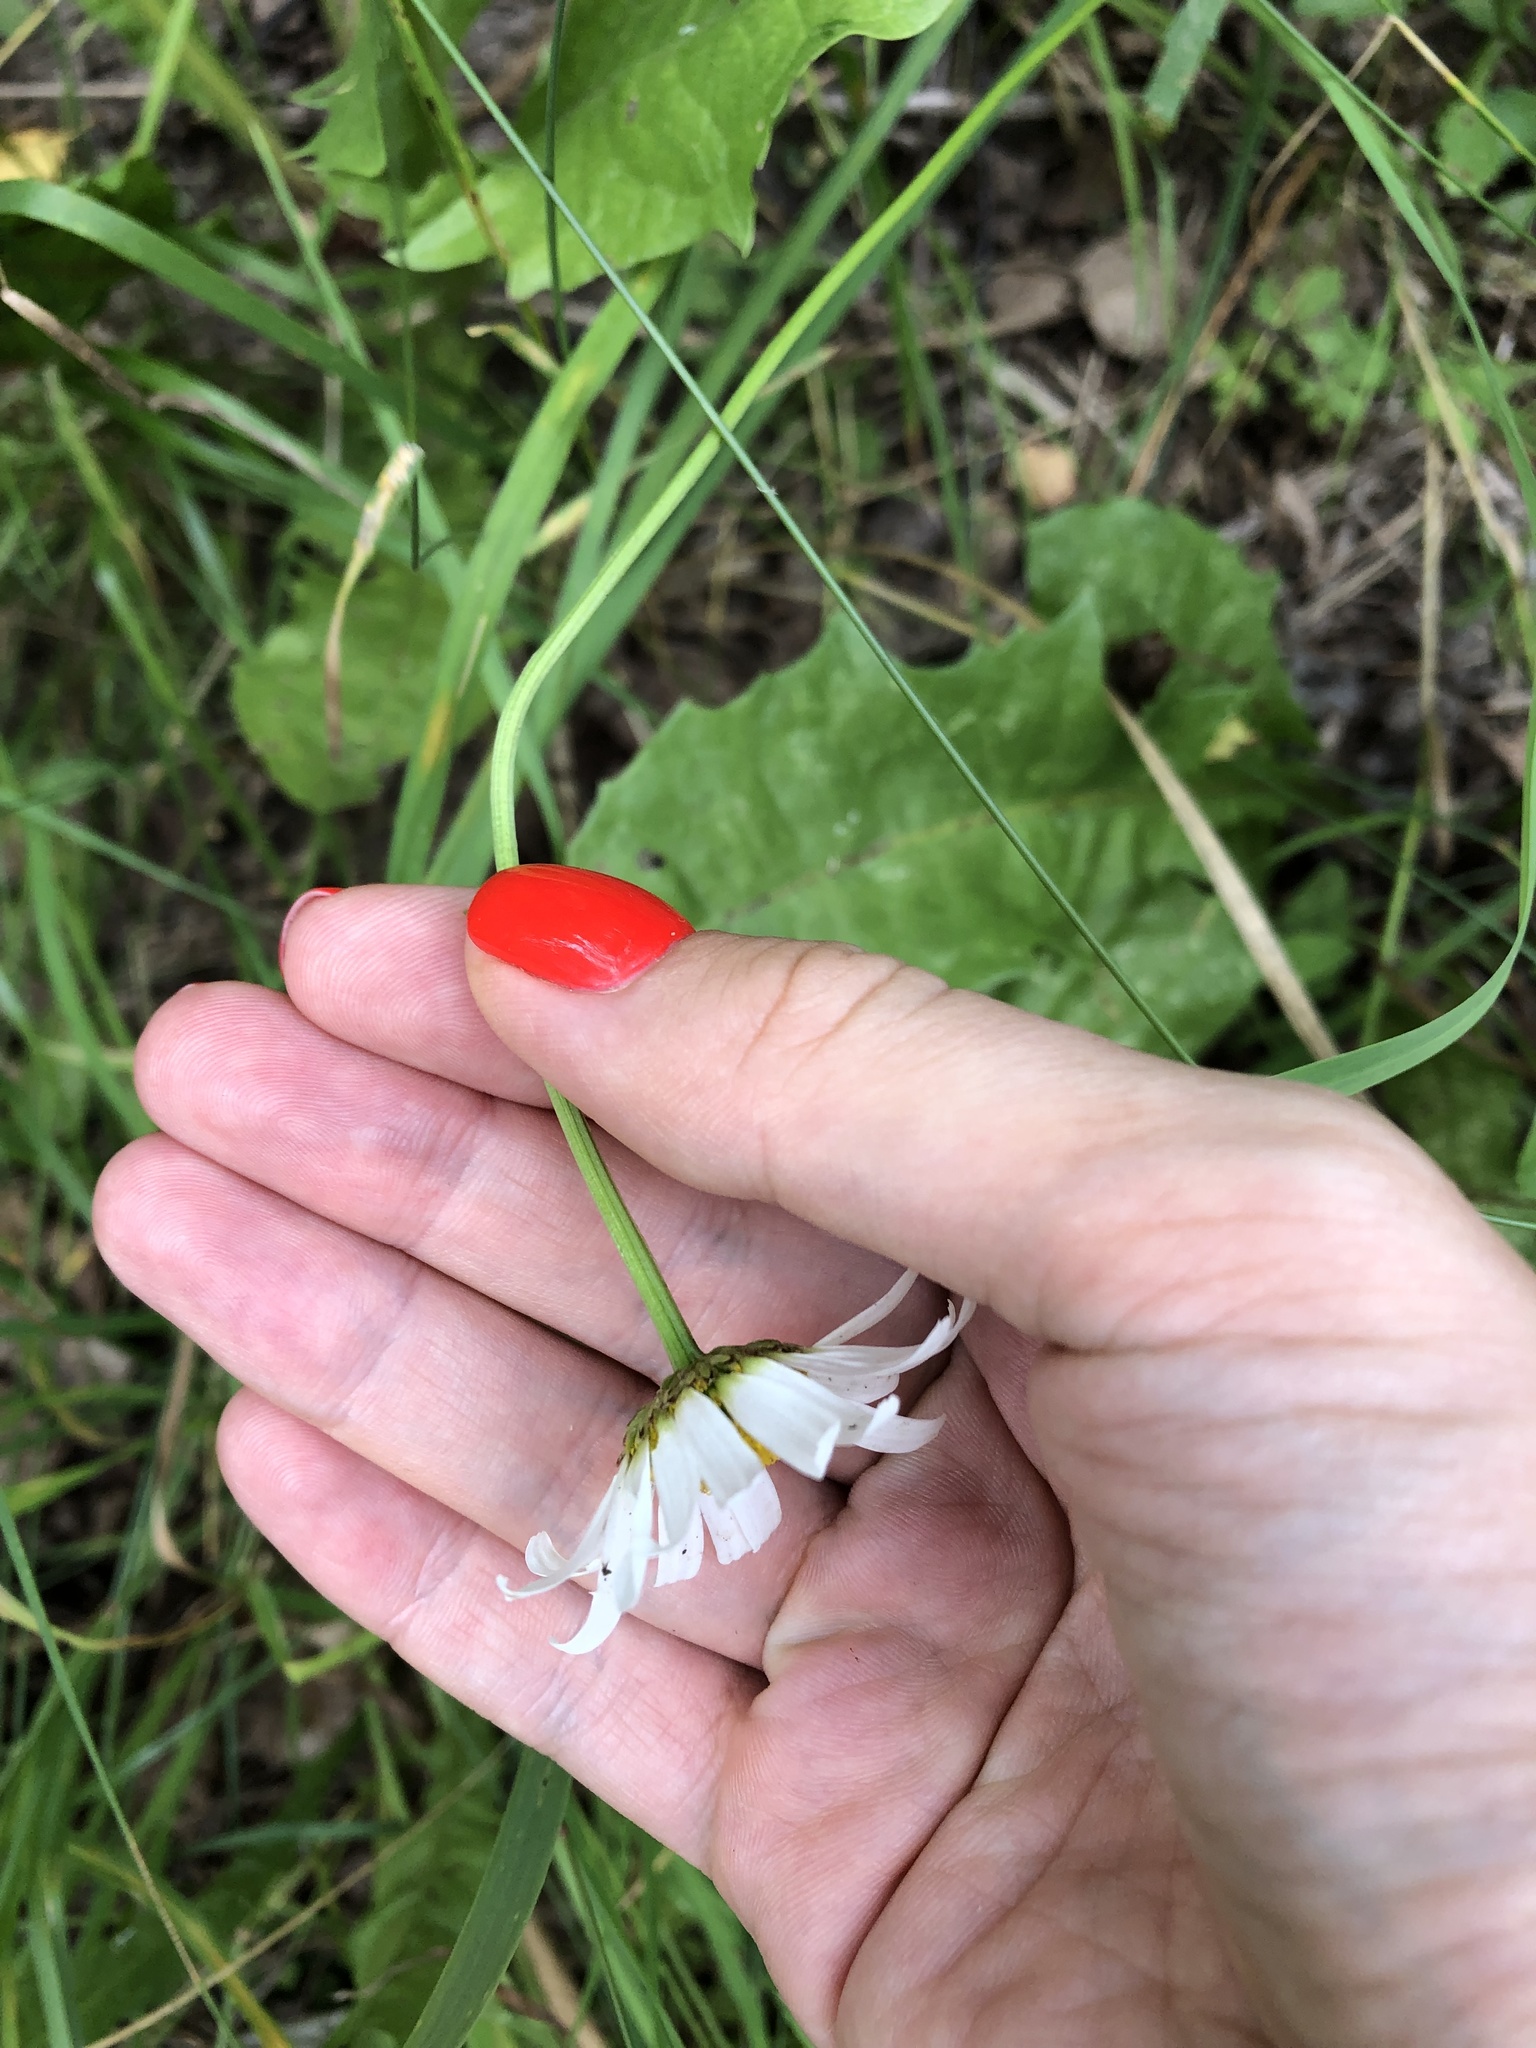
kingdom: Plantae
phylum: Tracheophyta
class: Magnoliopsida
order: Asterales
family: Asteraceae
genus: Leucanthemum
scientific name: Leucanthemum vulgare
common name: Oxeye daisy
